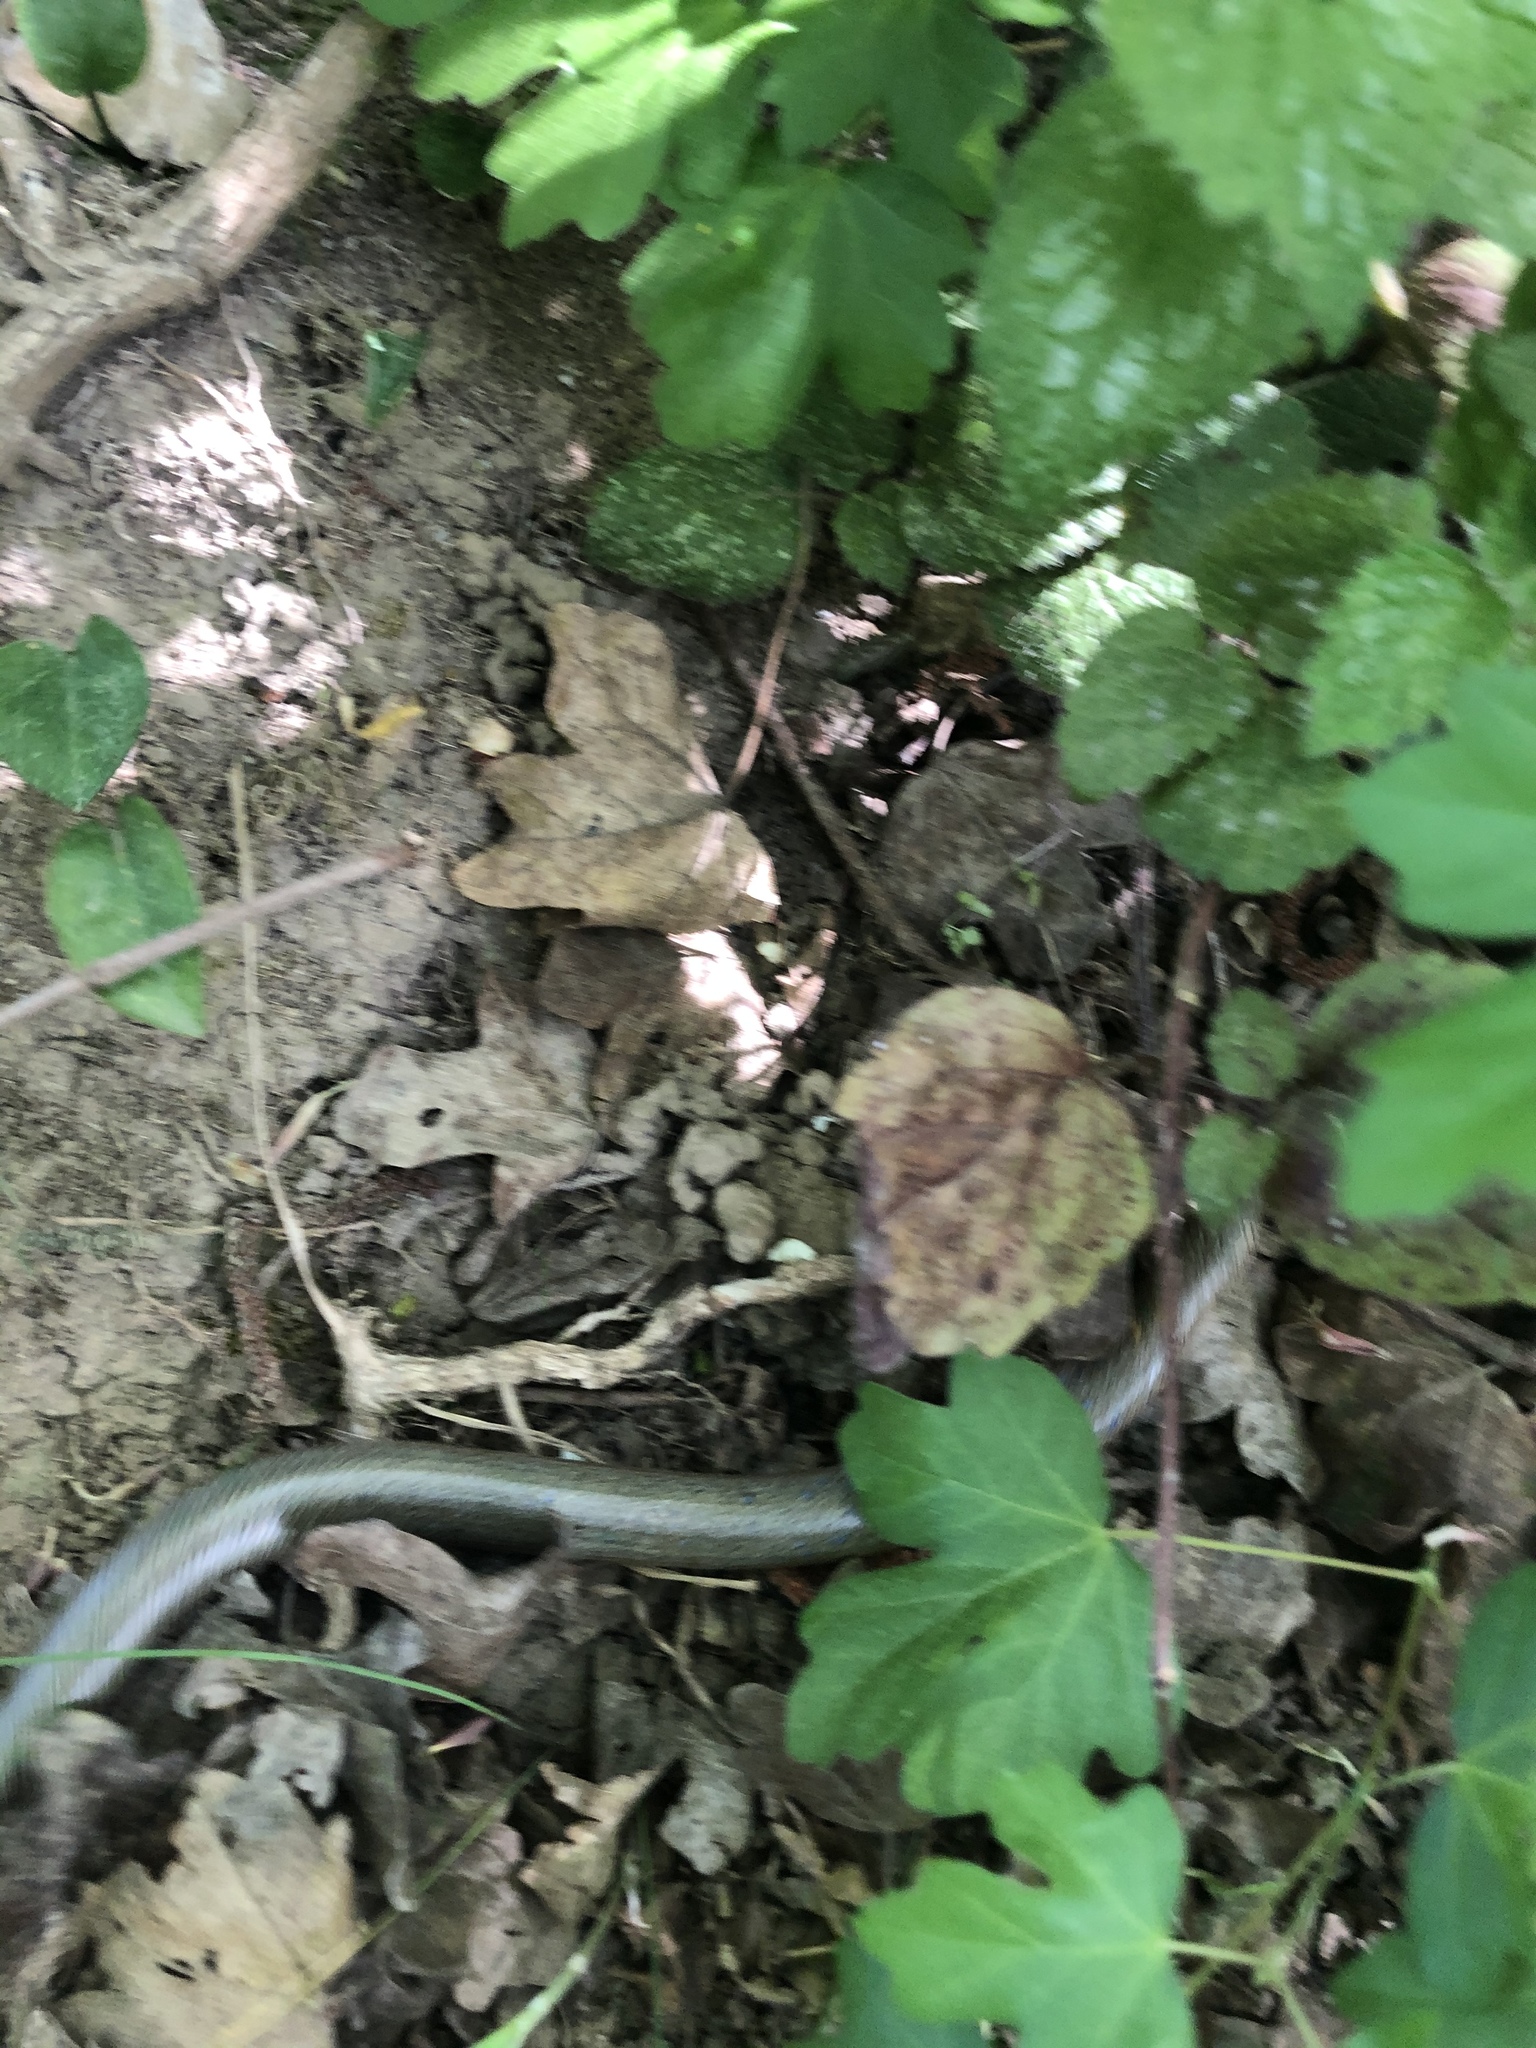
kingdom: Animalia
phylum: Chordata
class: Squamata
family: Anguidae
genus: Anguis
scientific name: Anguis fragilis
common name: Slow worm
